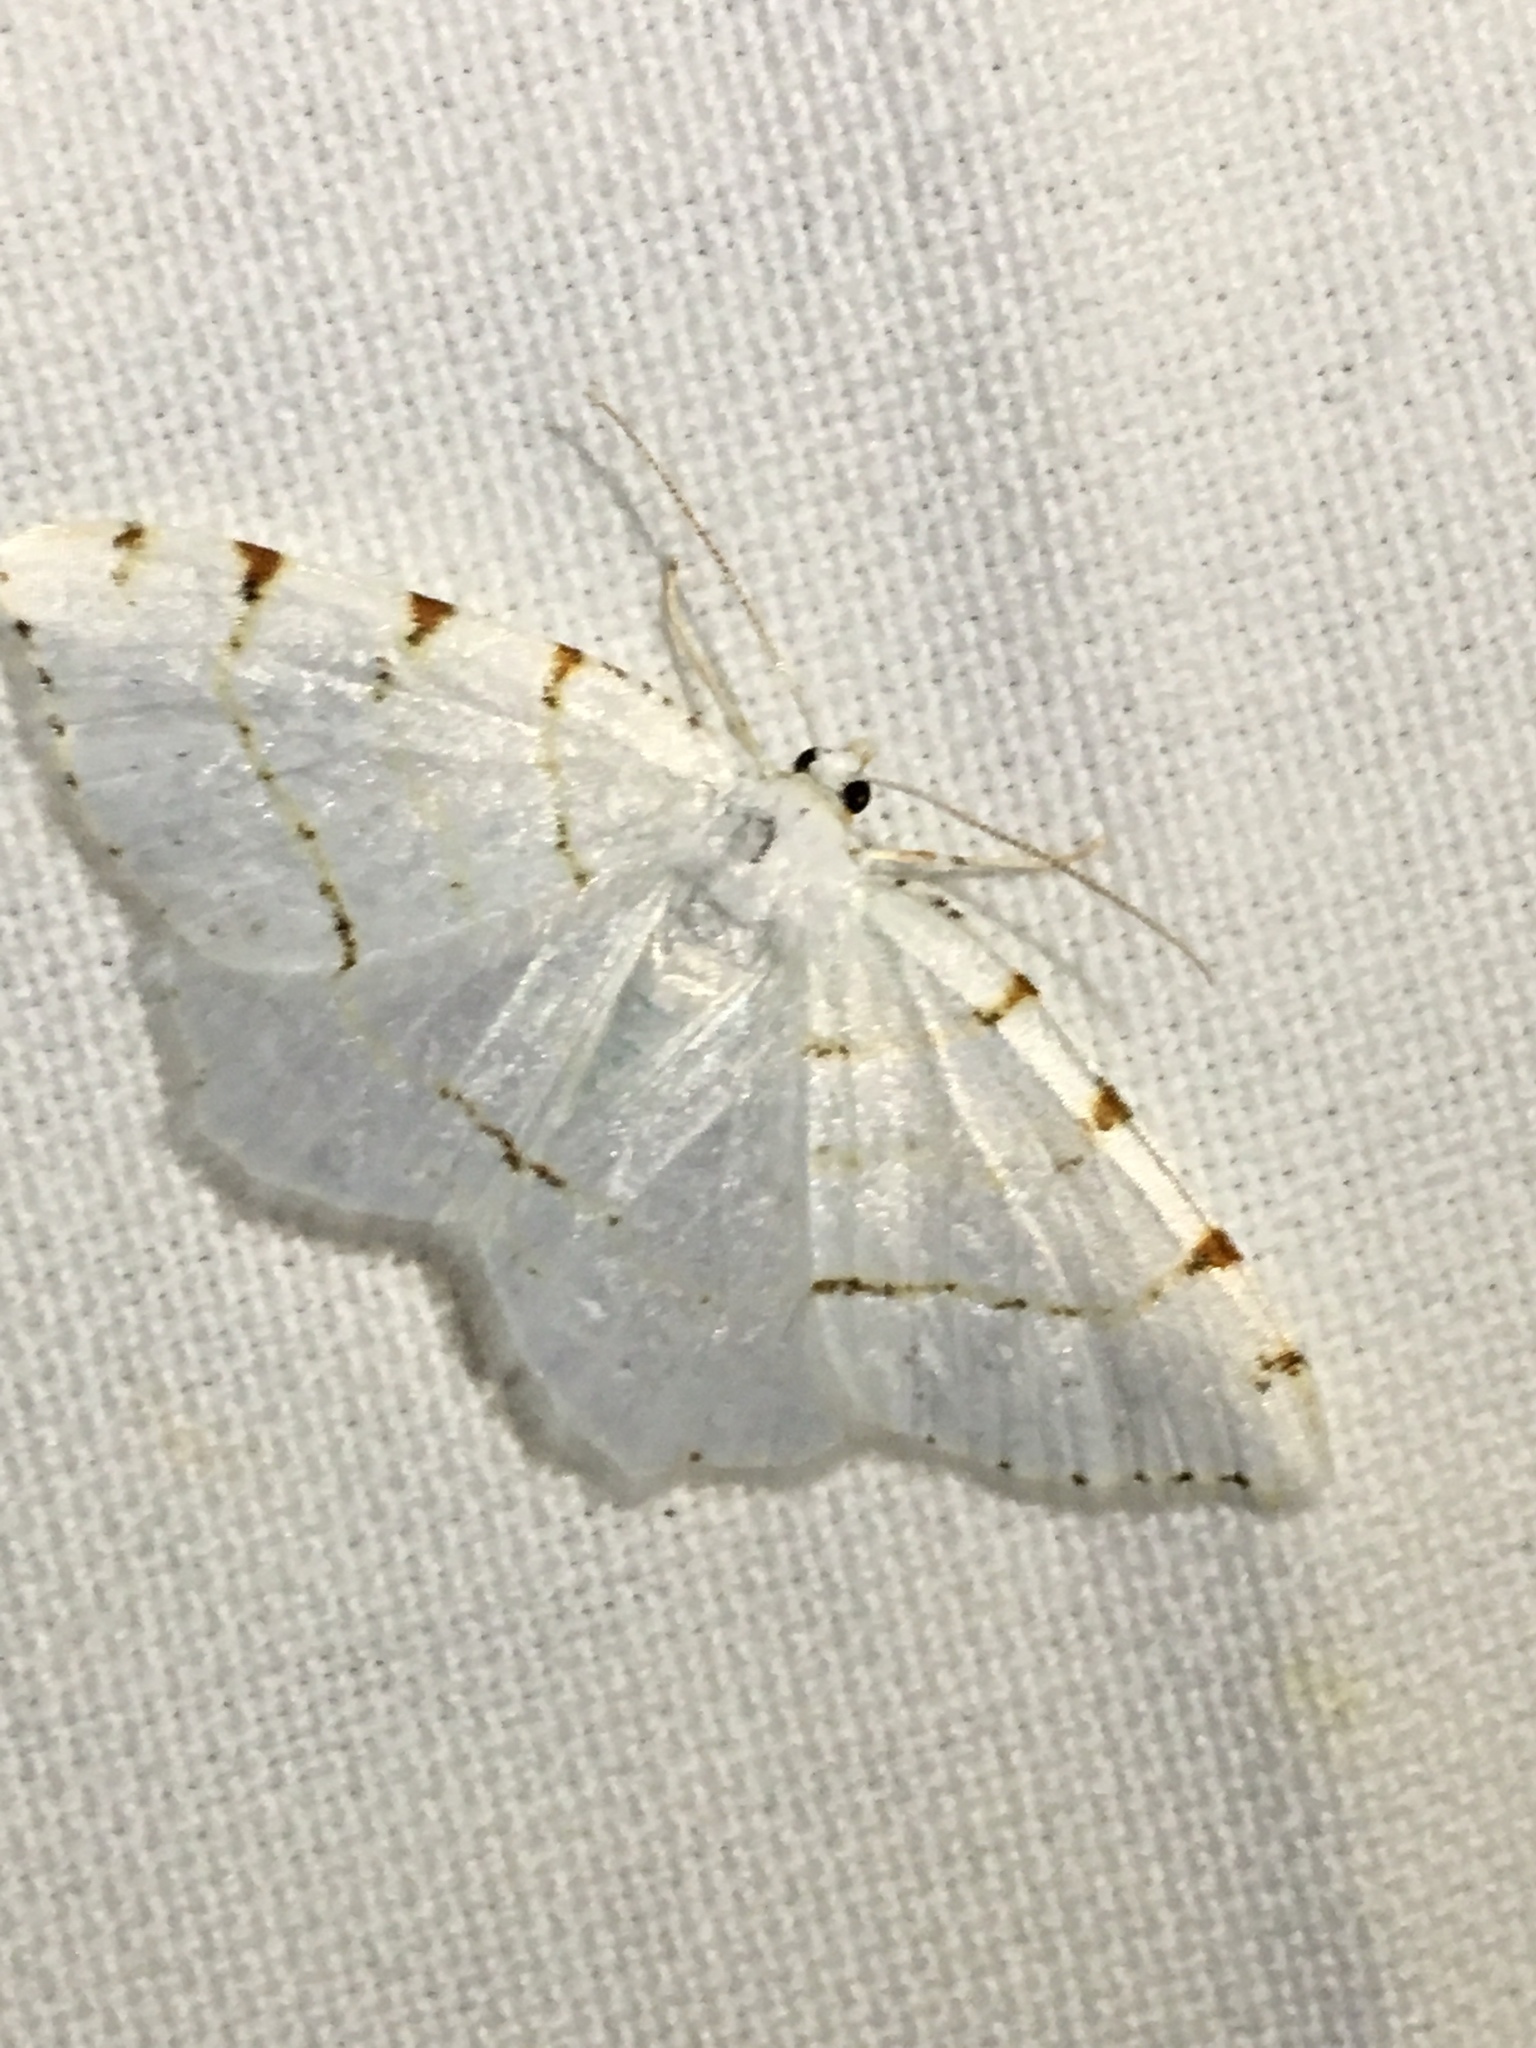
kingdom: Animalia
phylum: Arthropoda
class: Insecta
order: Lepidoptera
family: Geometridae
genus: Macaria
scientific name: Macaria pustularia
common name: Lesser maple spanworm moth
